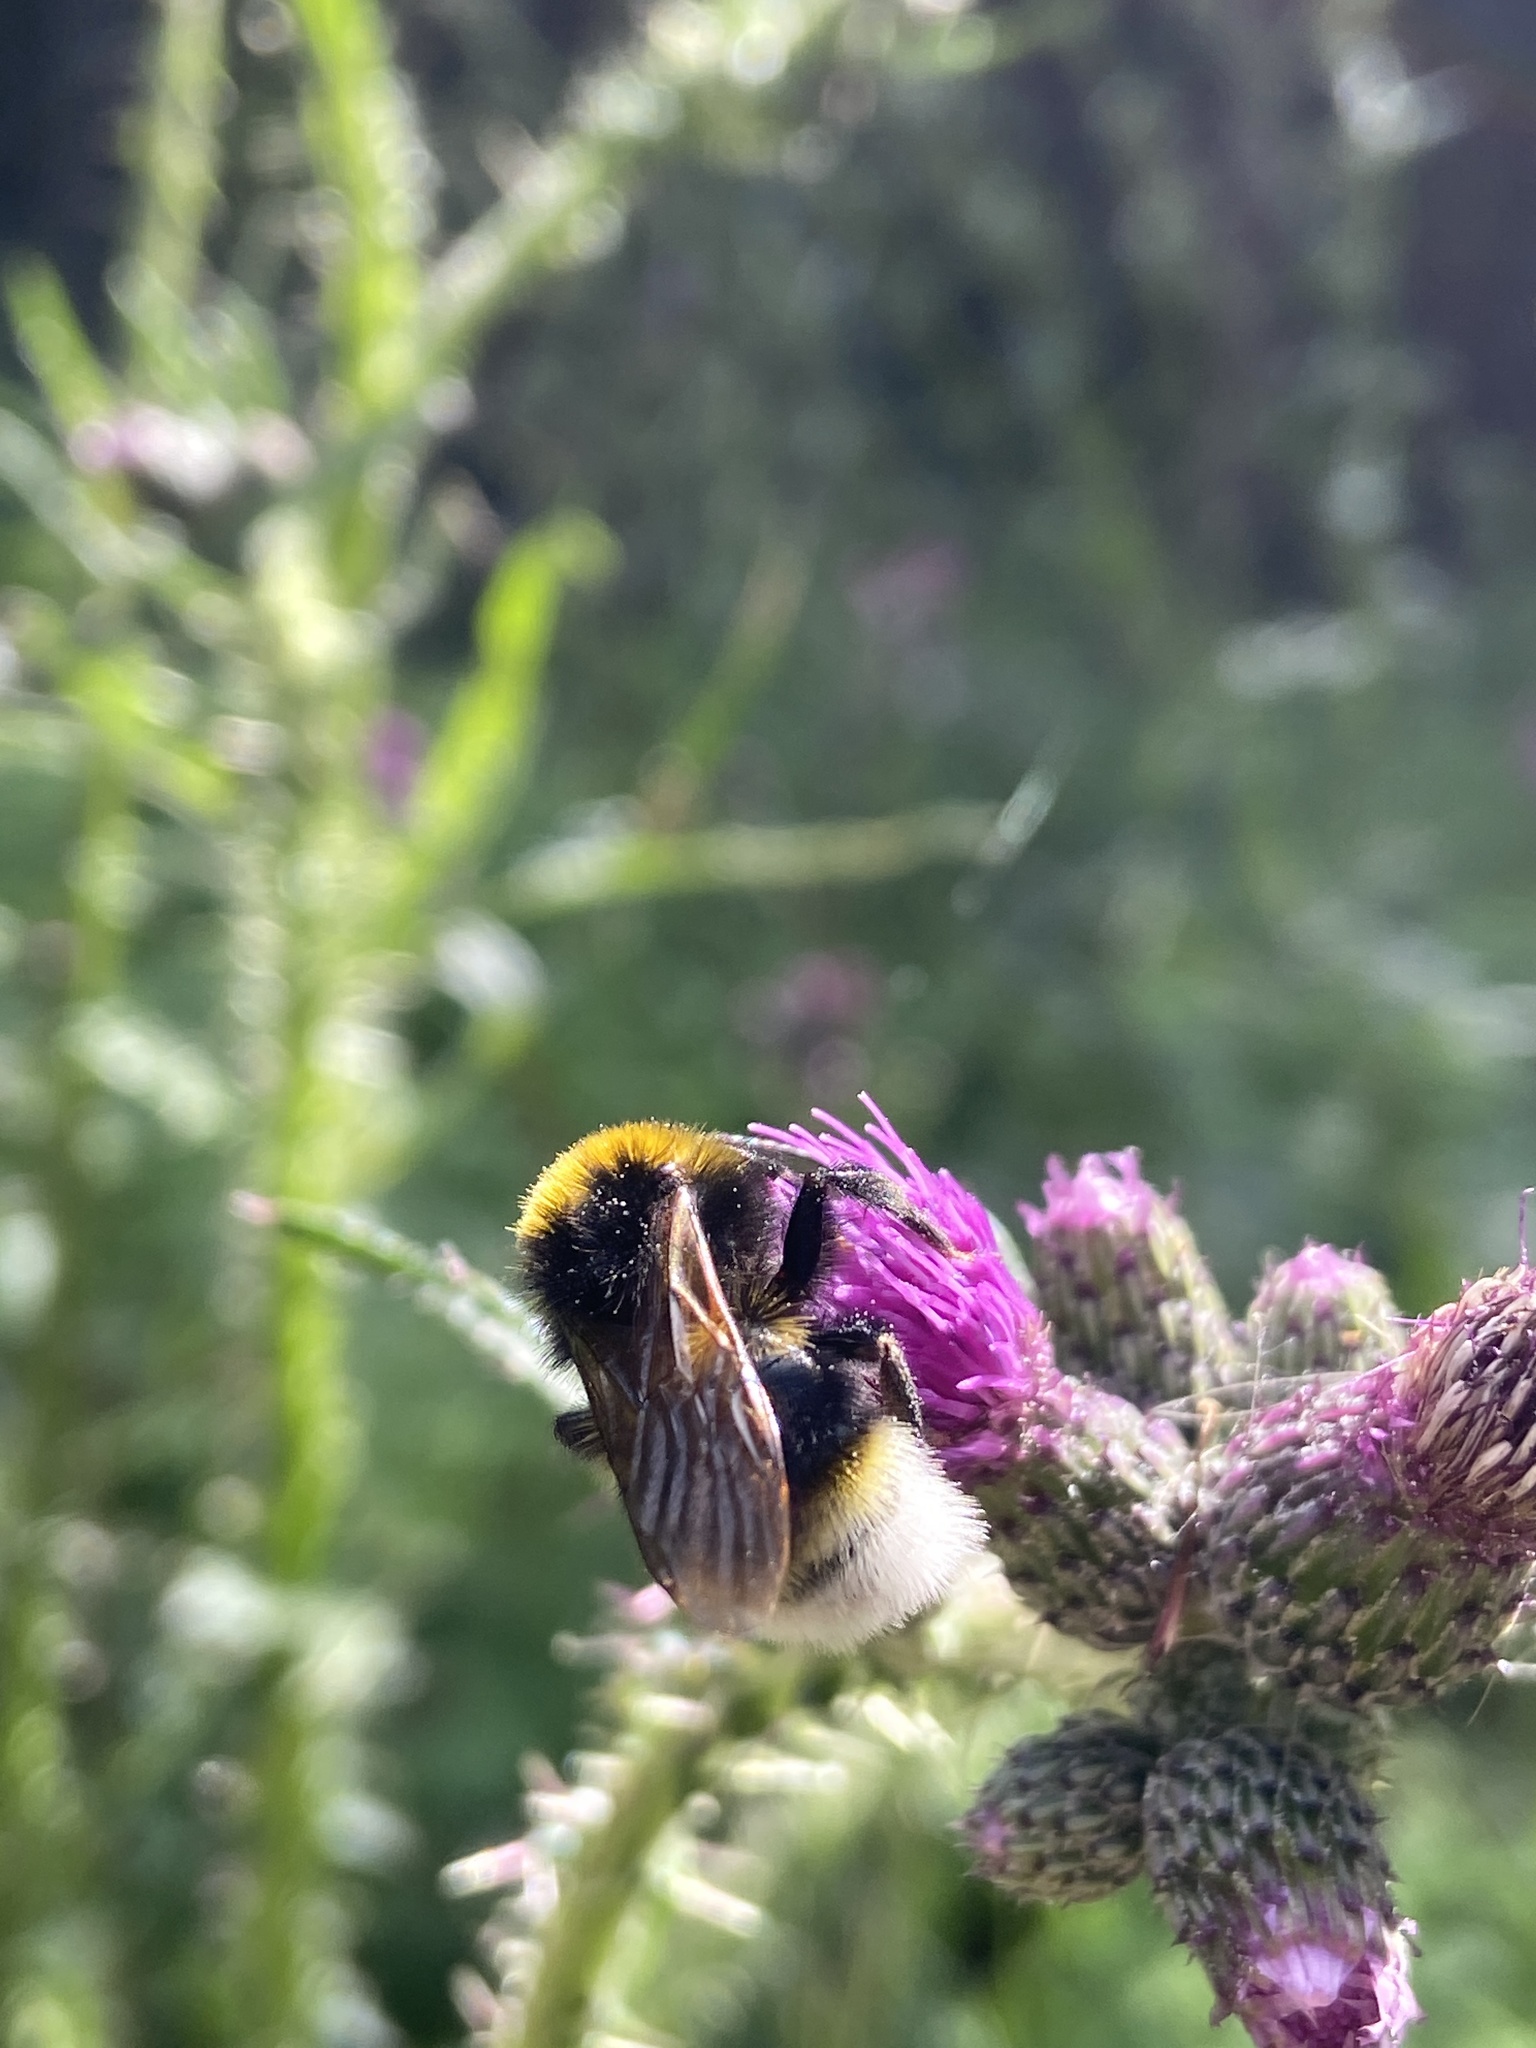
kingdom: Animalia
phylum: Arthropoda
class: Insecta
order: Hymenoptera
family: Apidae
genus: Bombus
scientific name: Bombus vestalis
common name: Vestal cuckoo bee
